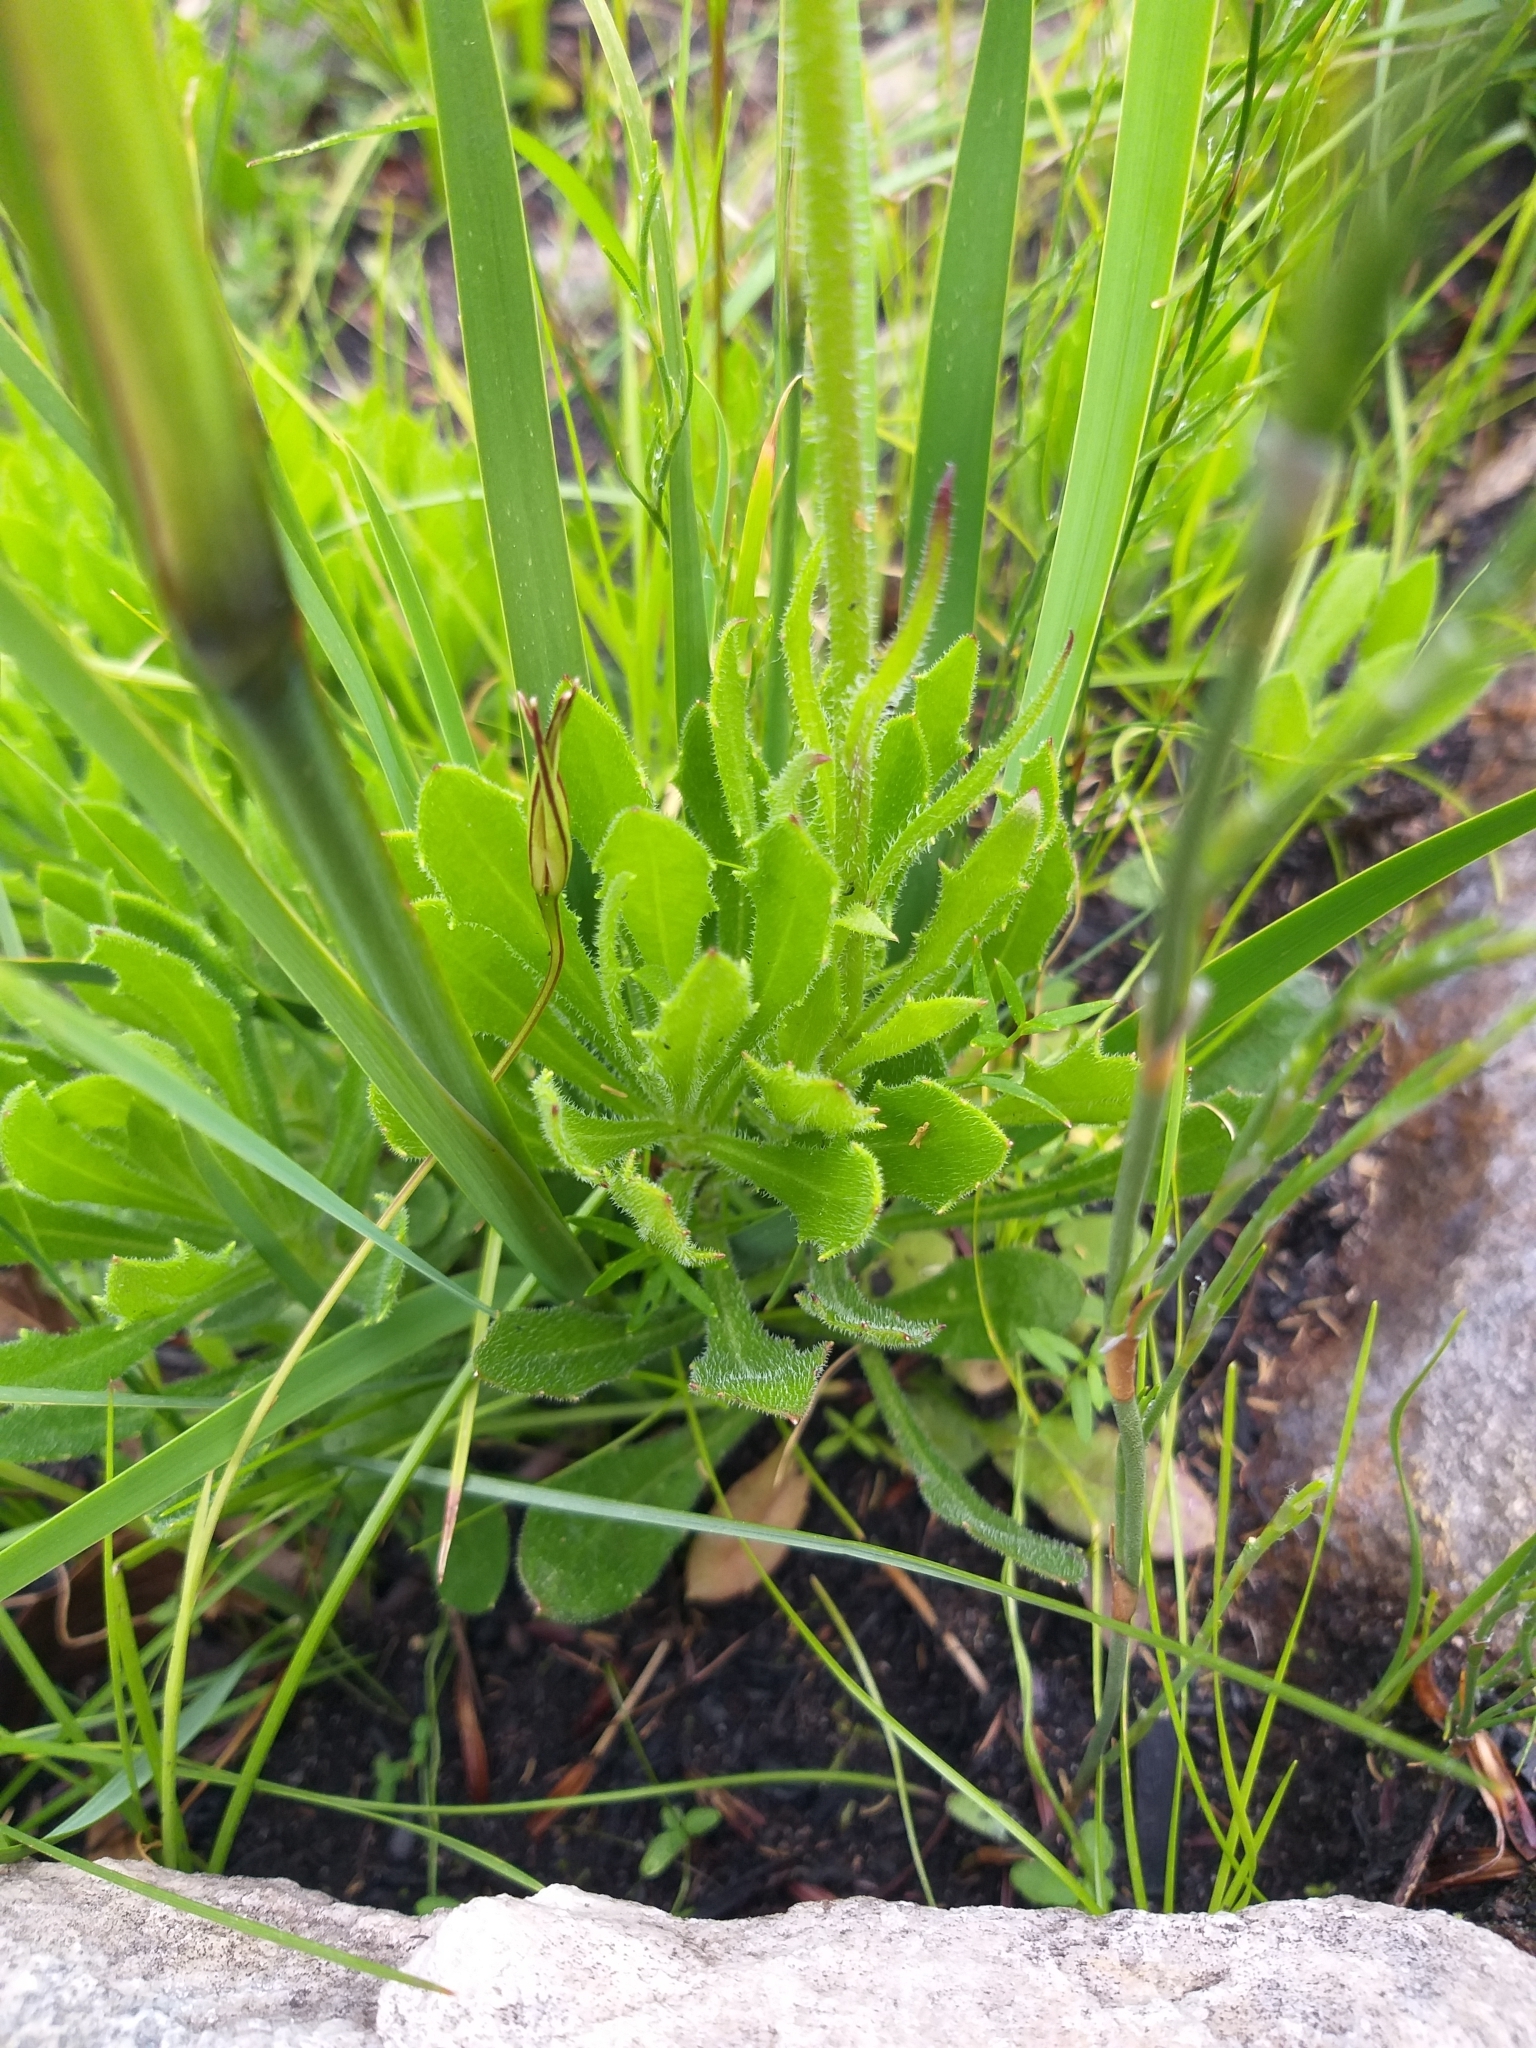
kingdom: Plantae
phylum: Tracheophyta
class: Magnoliopsida
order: Asterales
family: Asteraceae
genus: Dimorphotheca
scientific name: Dimorphotheca nudicaulis
